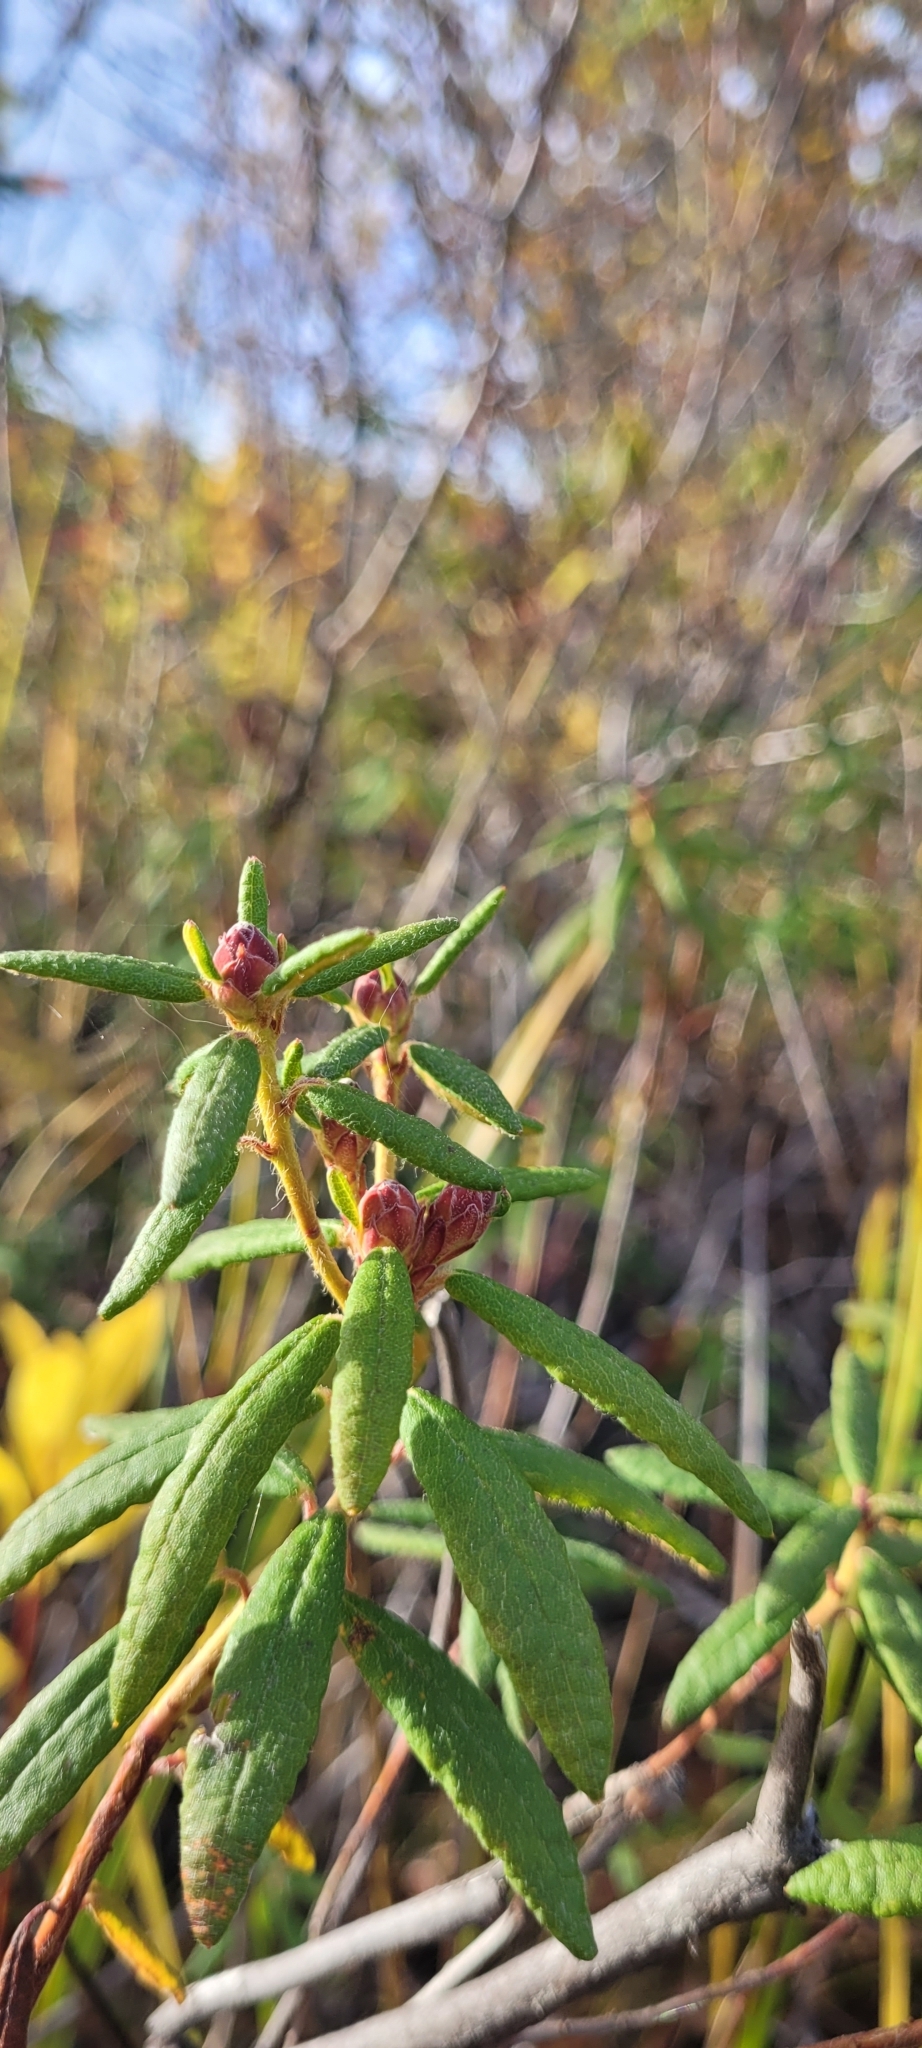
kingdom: Plantae
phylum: Tracheophyta
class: Magnoliopsida
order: Ericales
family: Ericaceae
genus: Rhododendron
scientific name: Rhododendron groenlandicum
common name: Bog labrador tea
